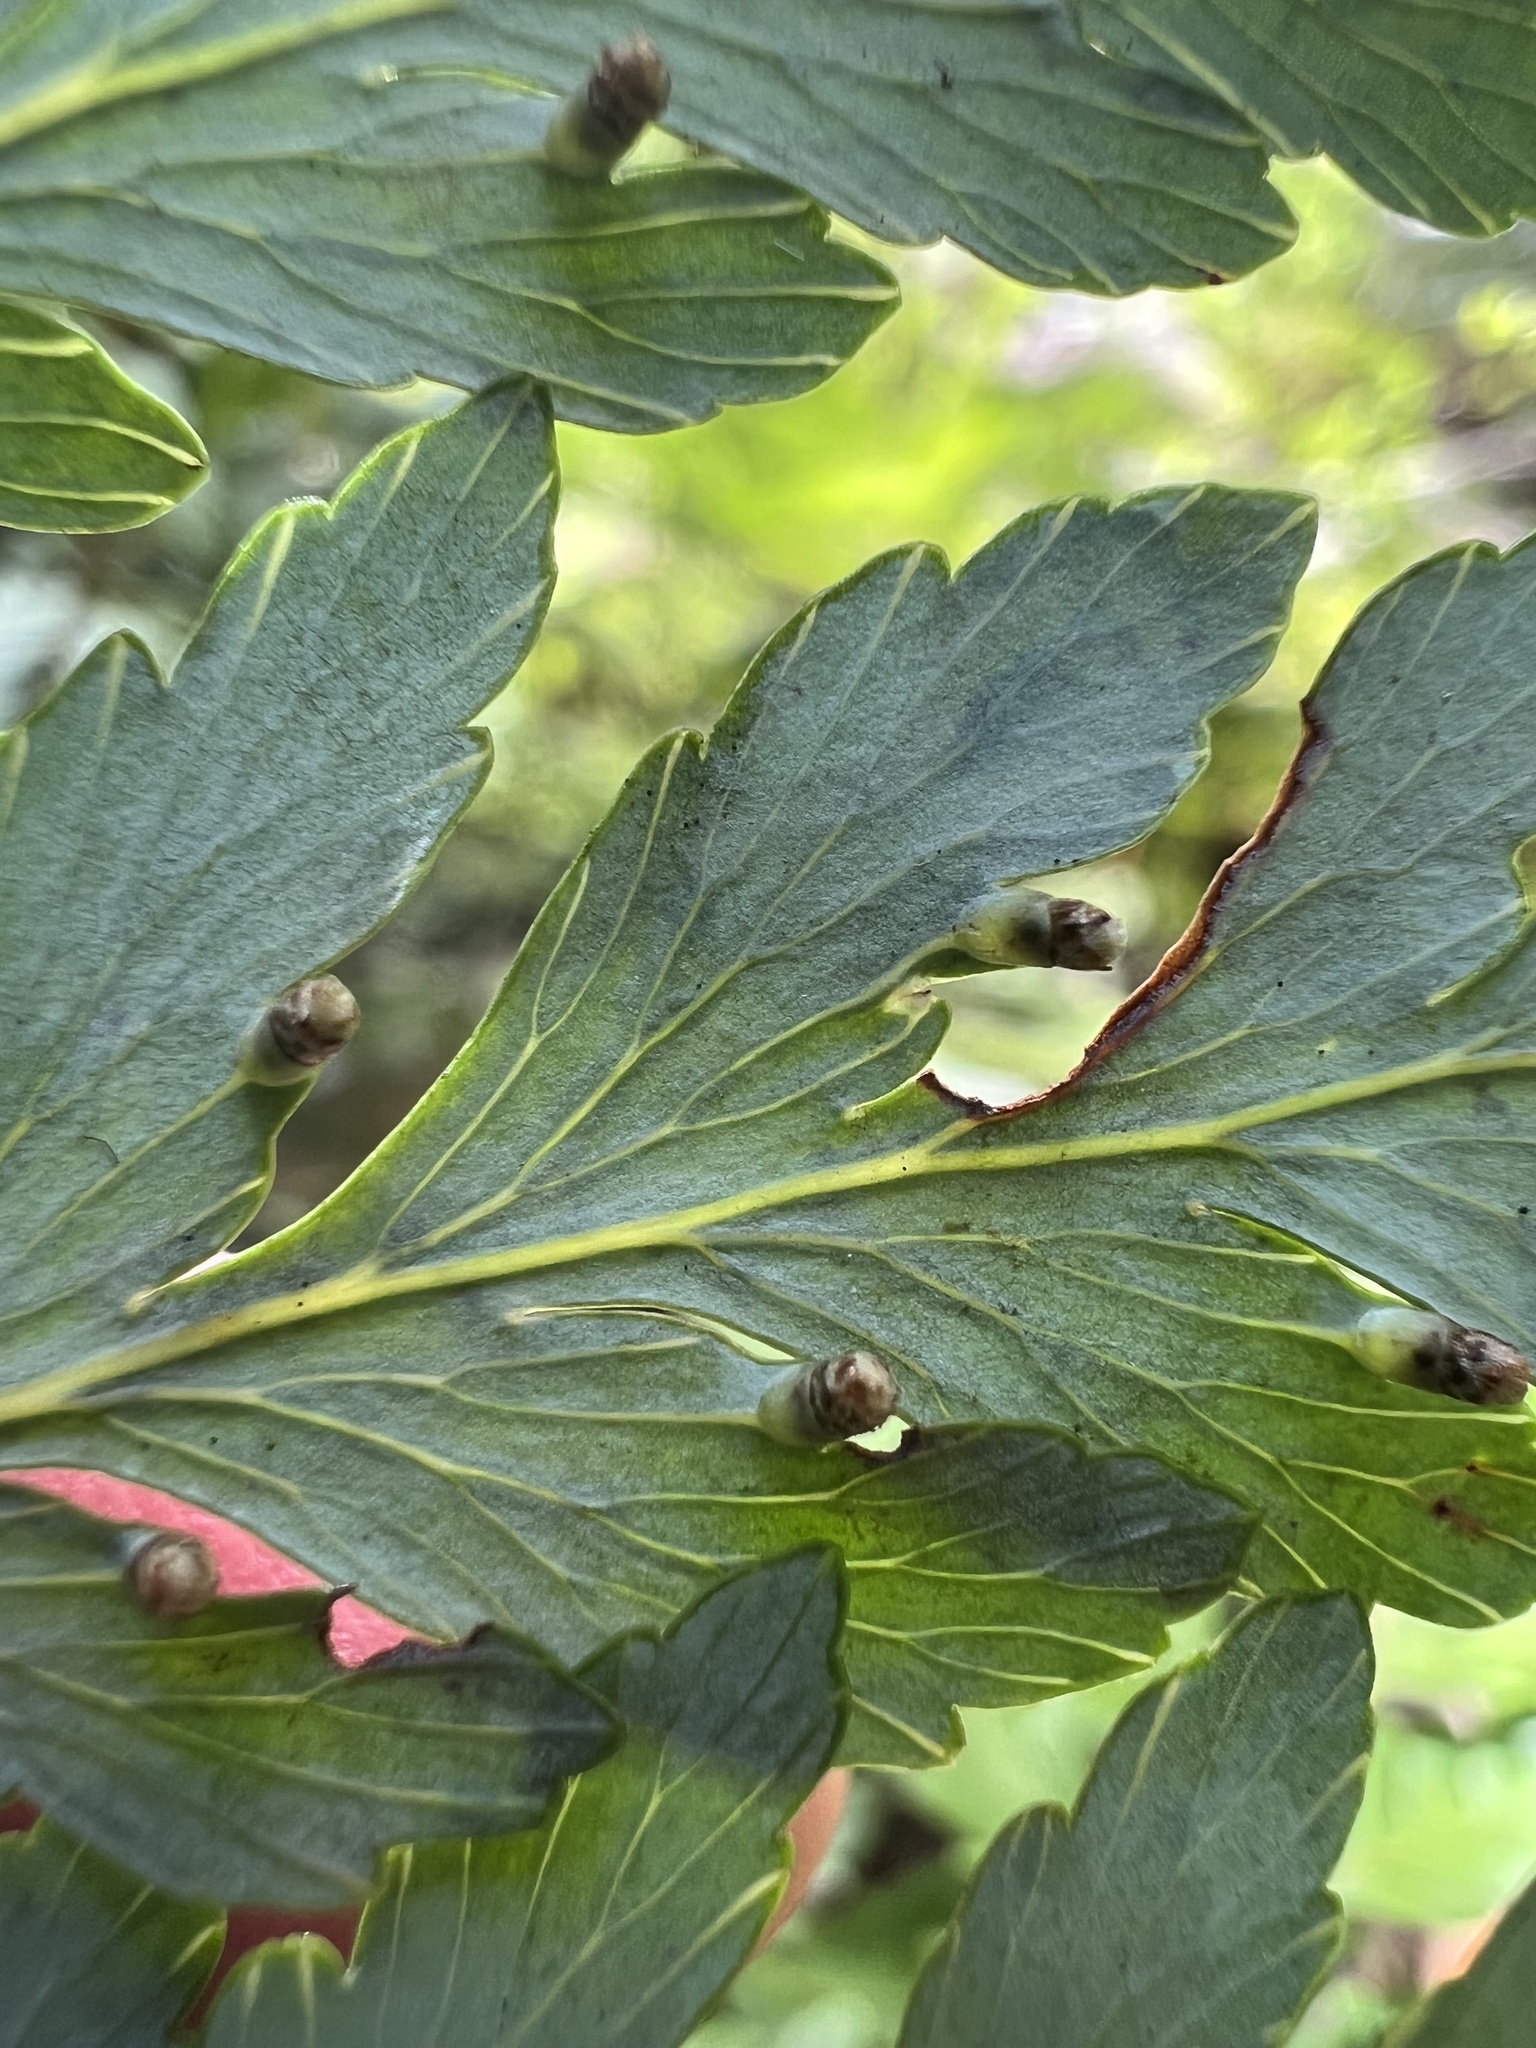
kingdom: Plantae
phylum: Tracheophyta
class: Polypodiopsida
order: Cyatheales
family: Loxsomataceae
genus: Loxsoma
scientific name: Loxsoma cunninghamii
